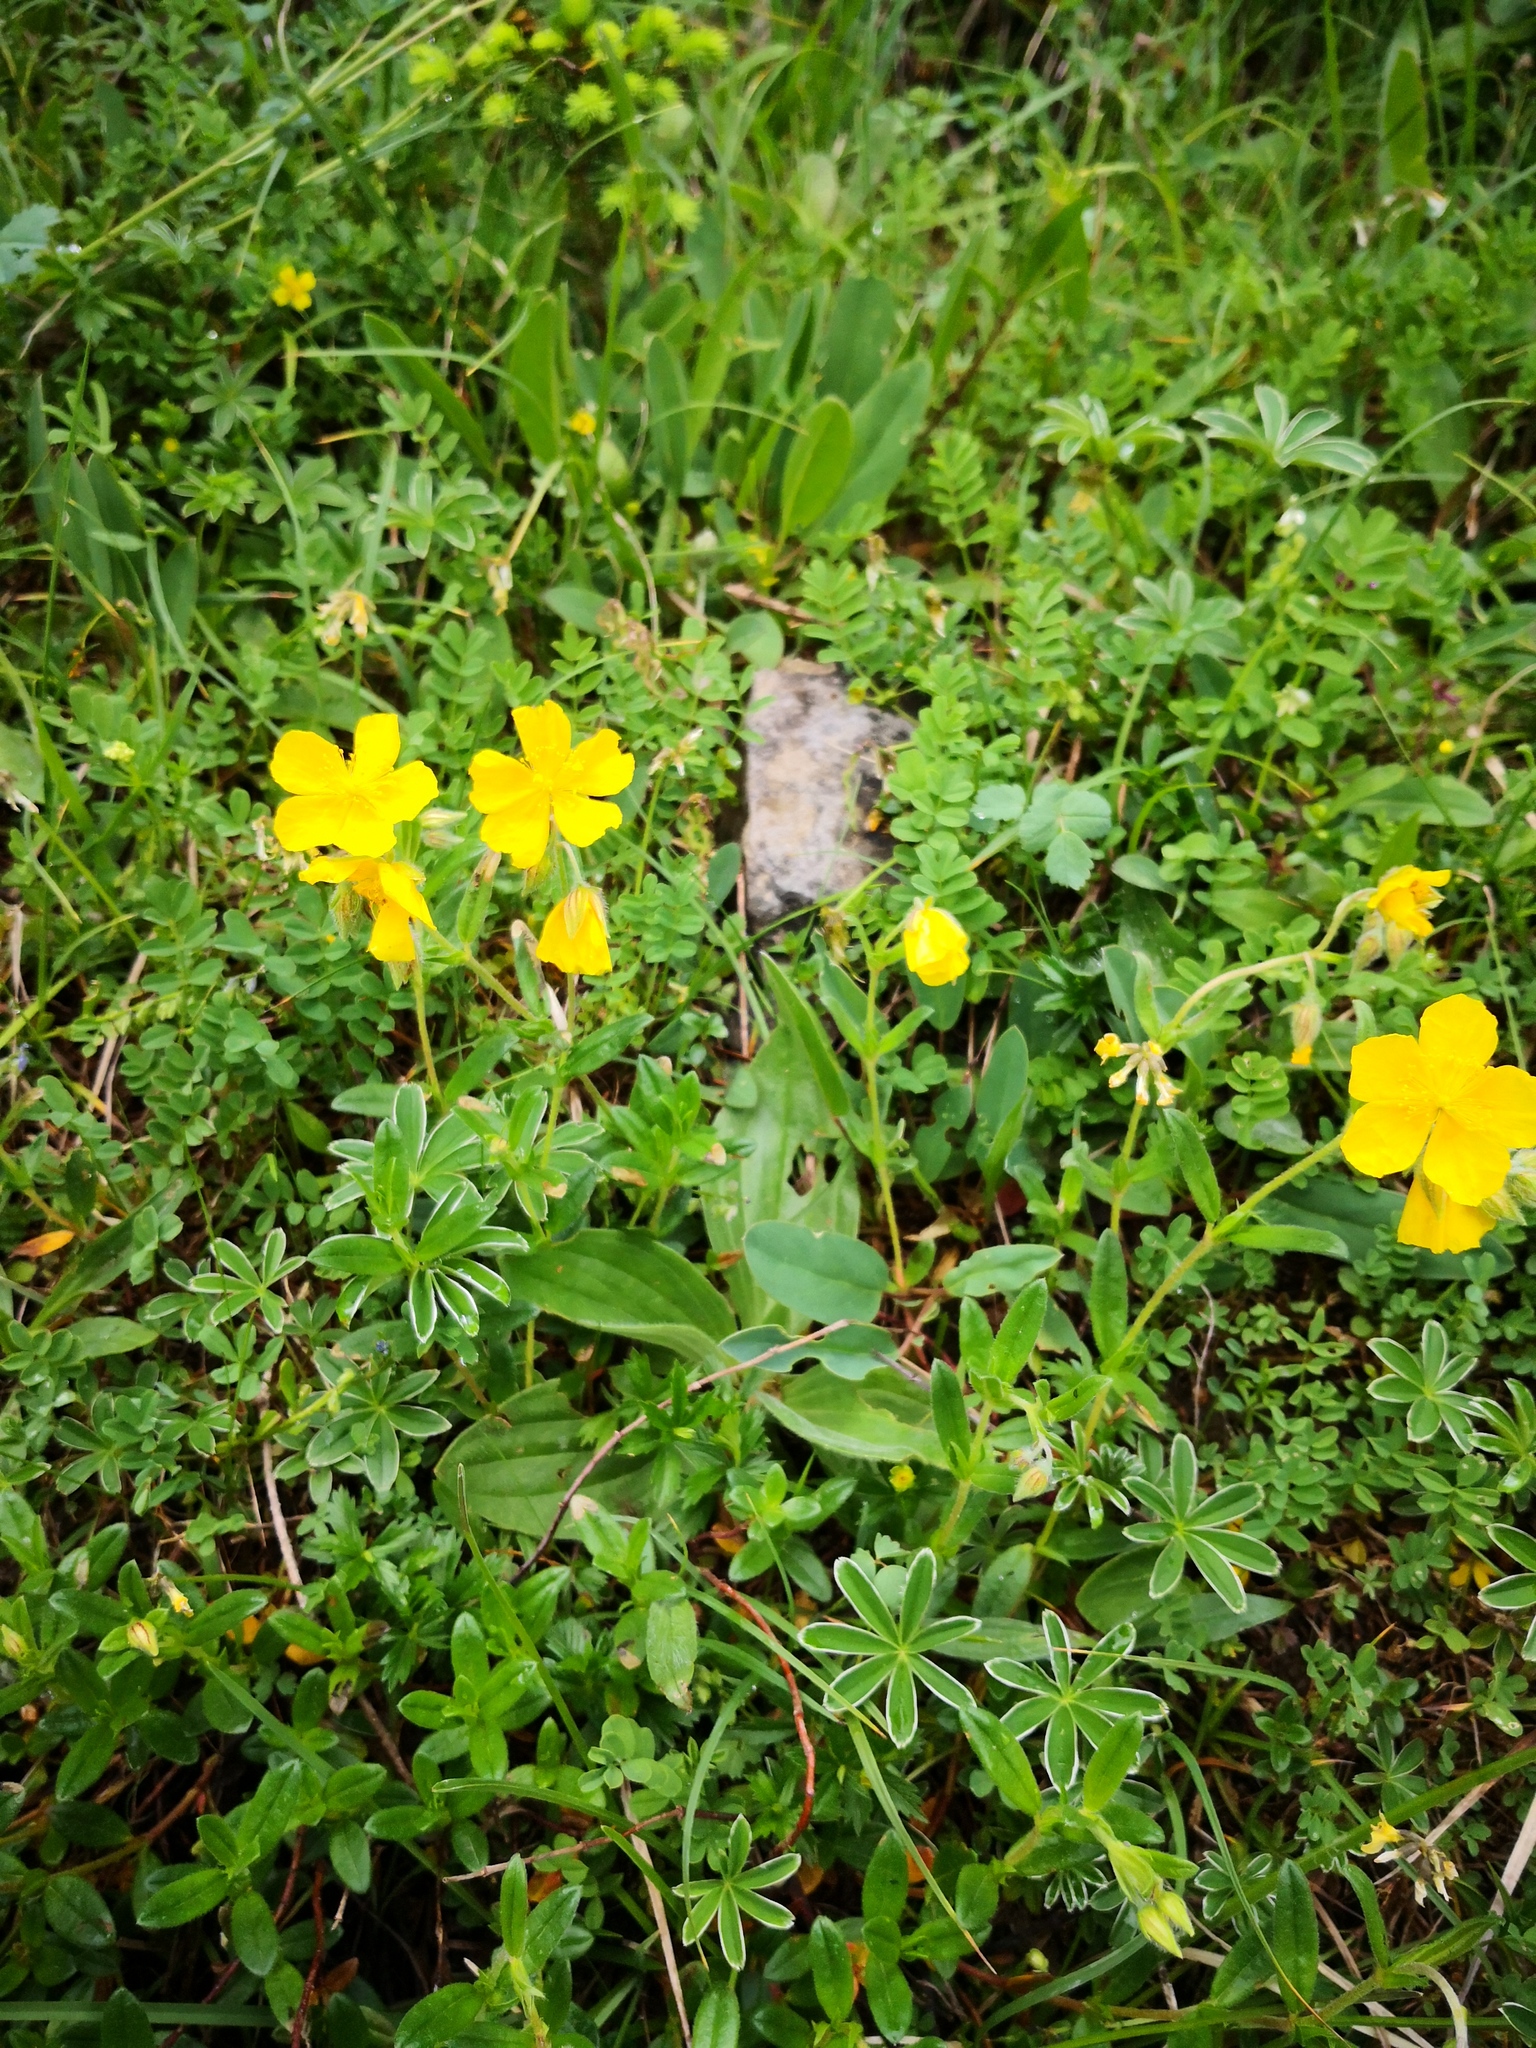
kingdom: Plantae
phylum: Tracheophyta
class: Magnoliopsida
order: Malvales
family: Cistaceae
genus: Helianthemum
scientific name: Helianthemum nummularium
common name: Common rock-rose
